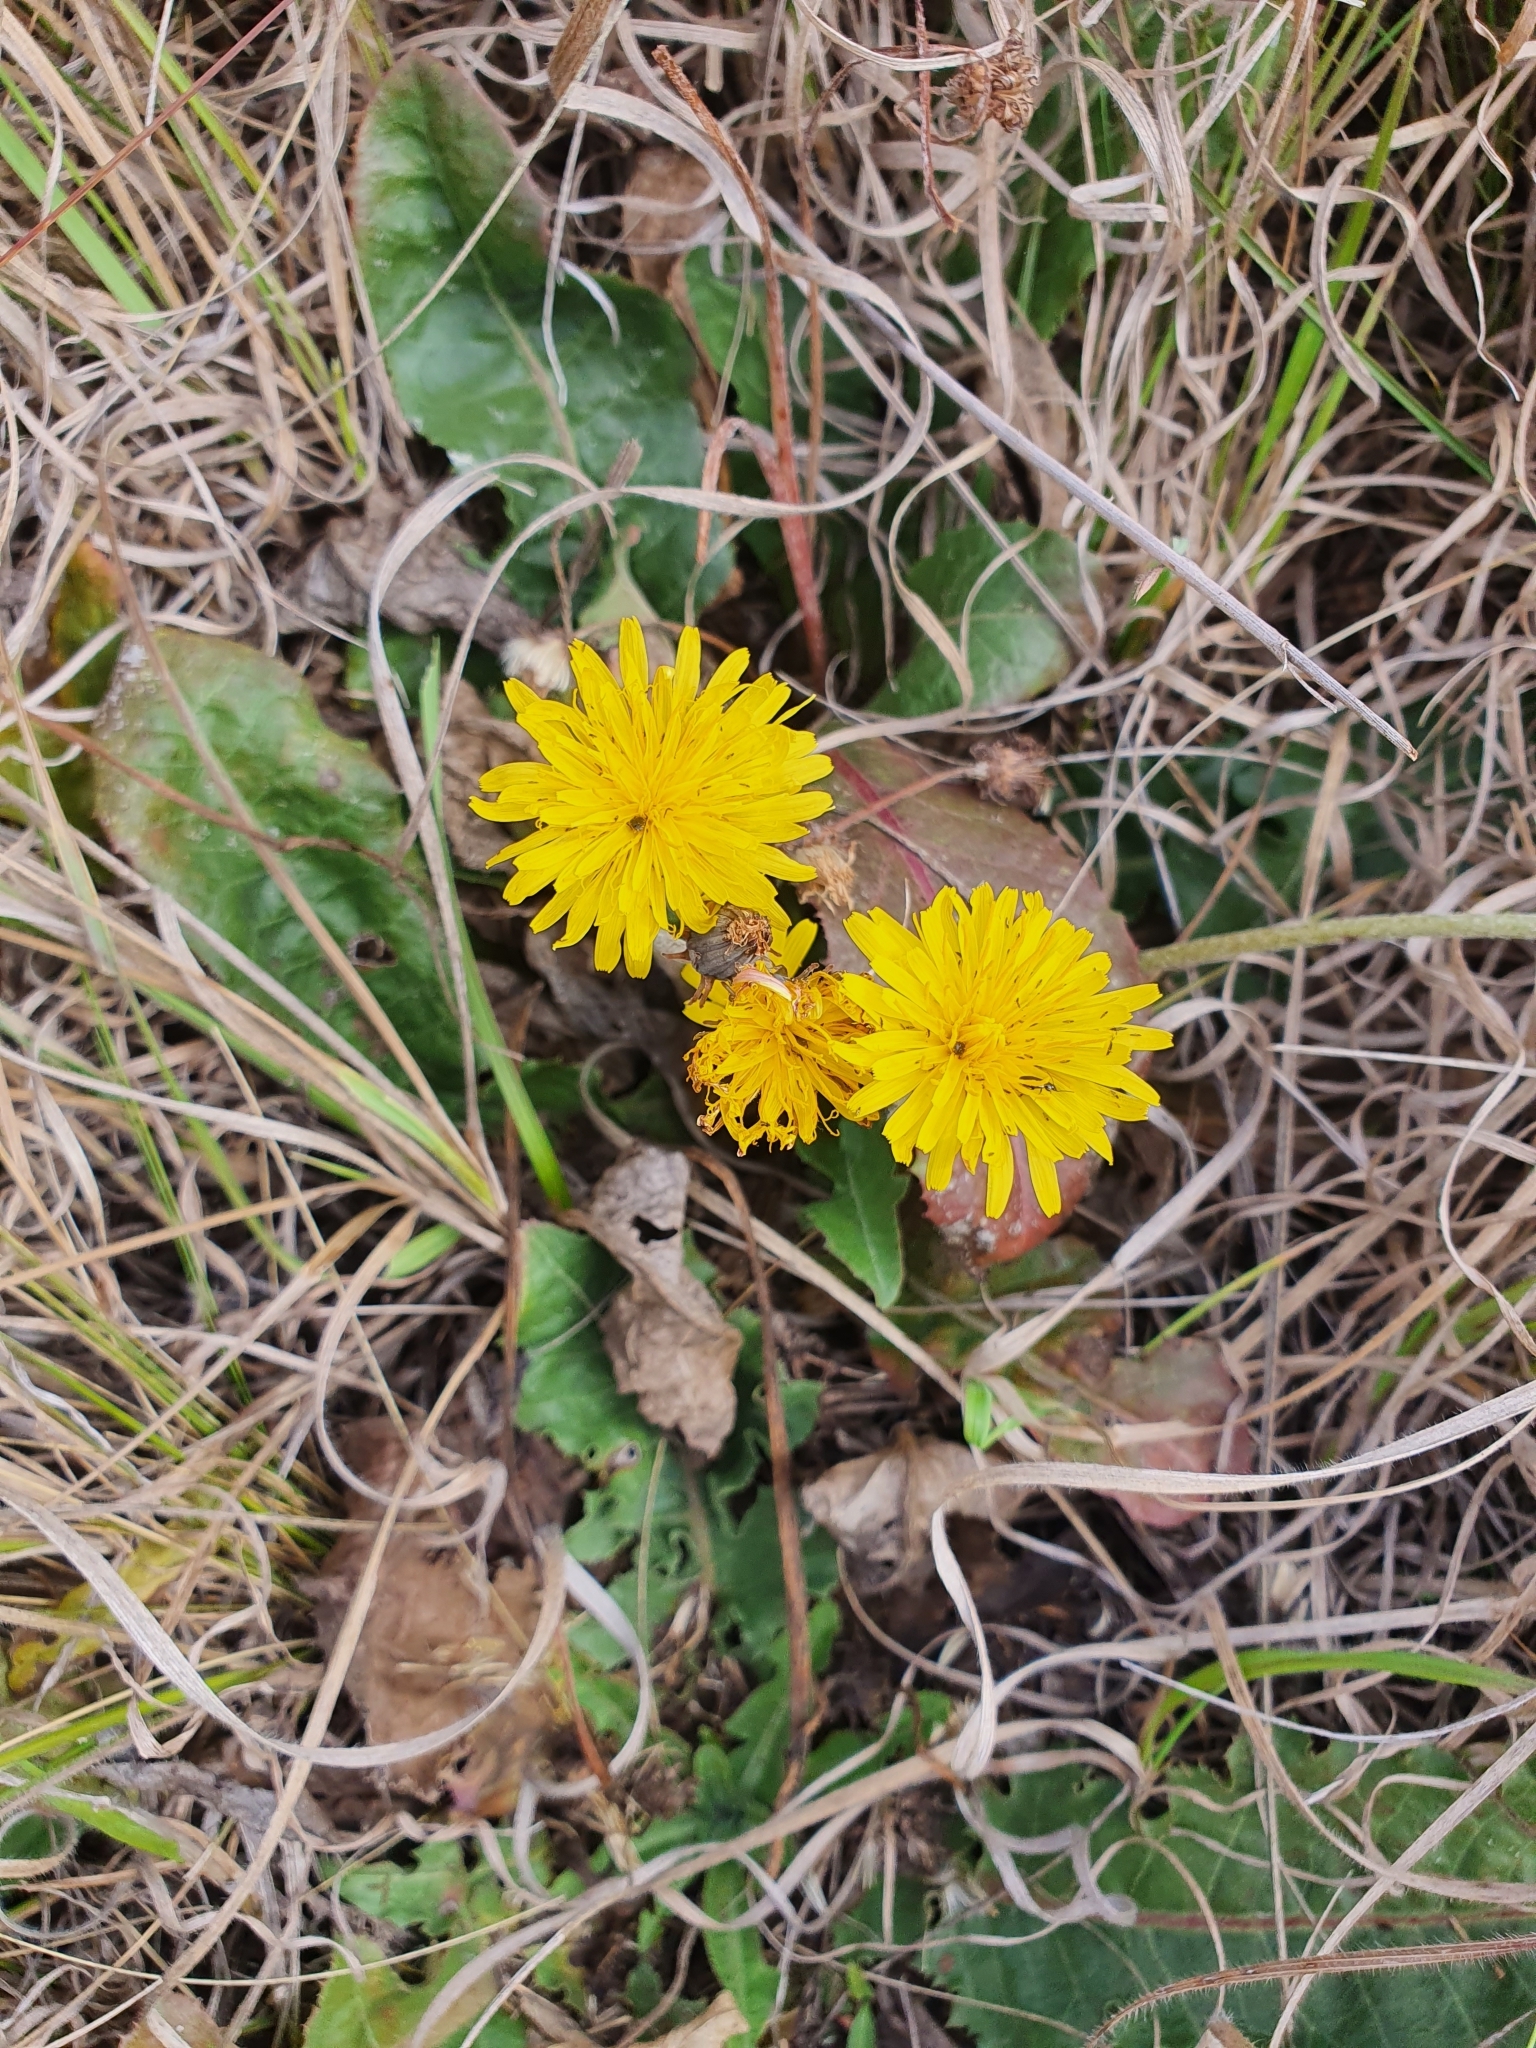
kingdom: Plantae
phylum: Tracheophyta
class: Magnoliopsida
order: Asterales
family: Asteraceae
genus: Taraxacum
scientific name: Taraxacum serotinum
